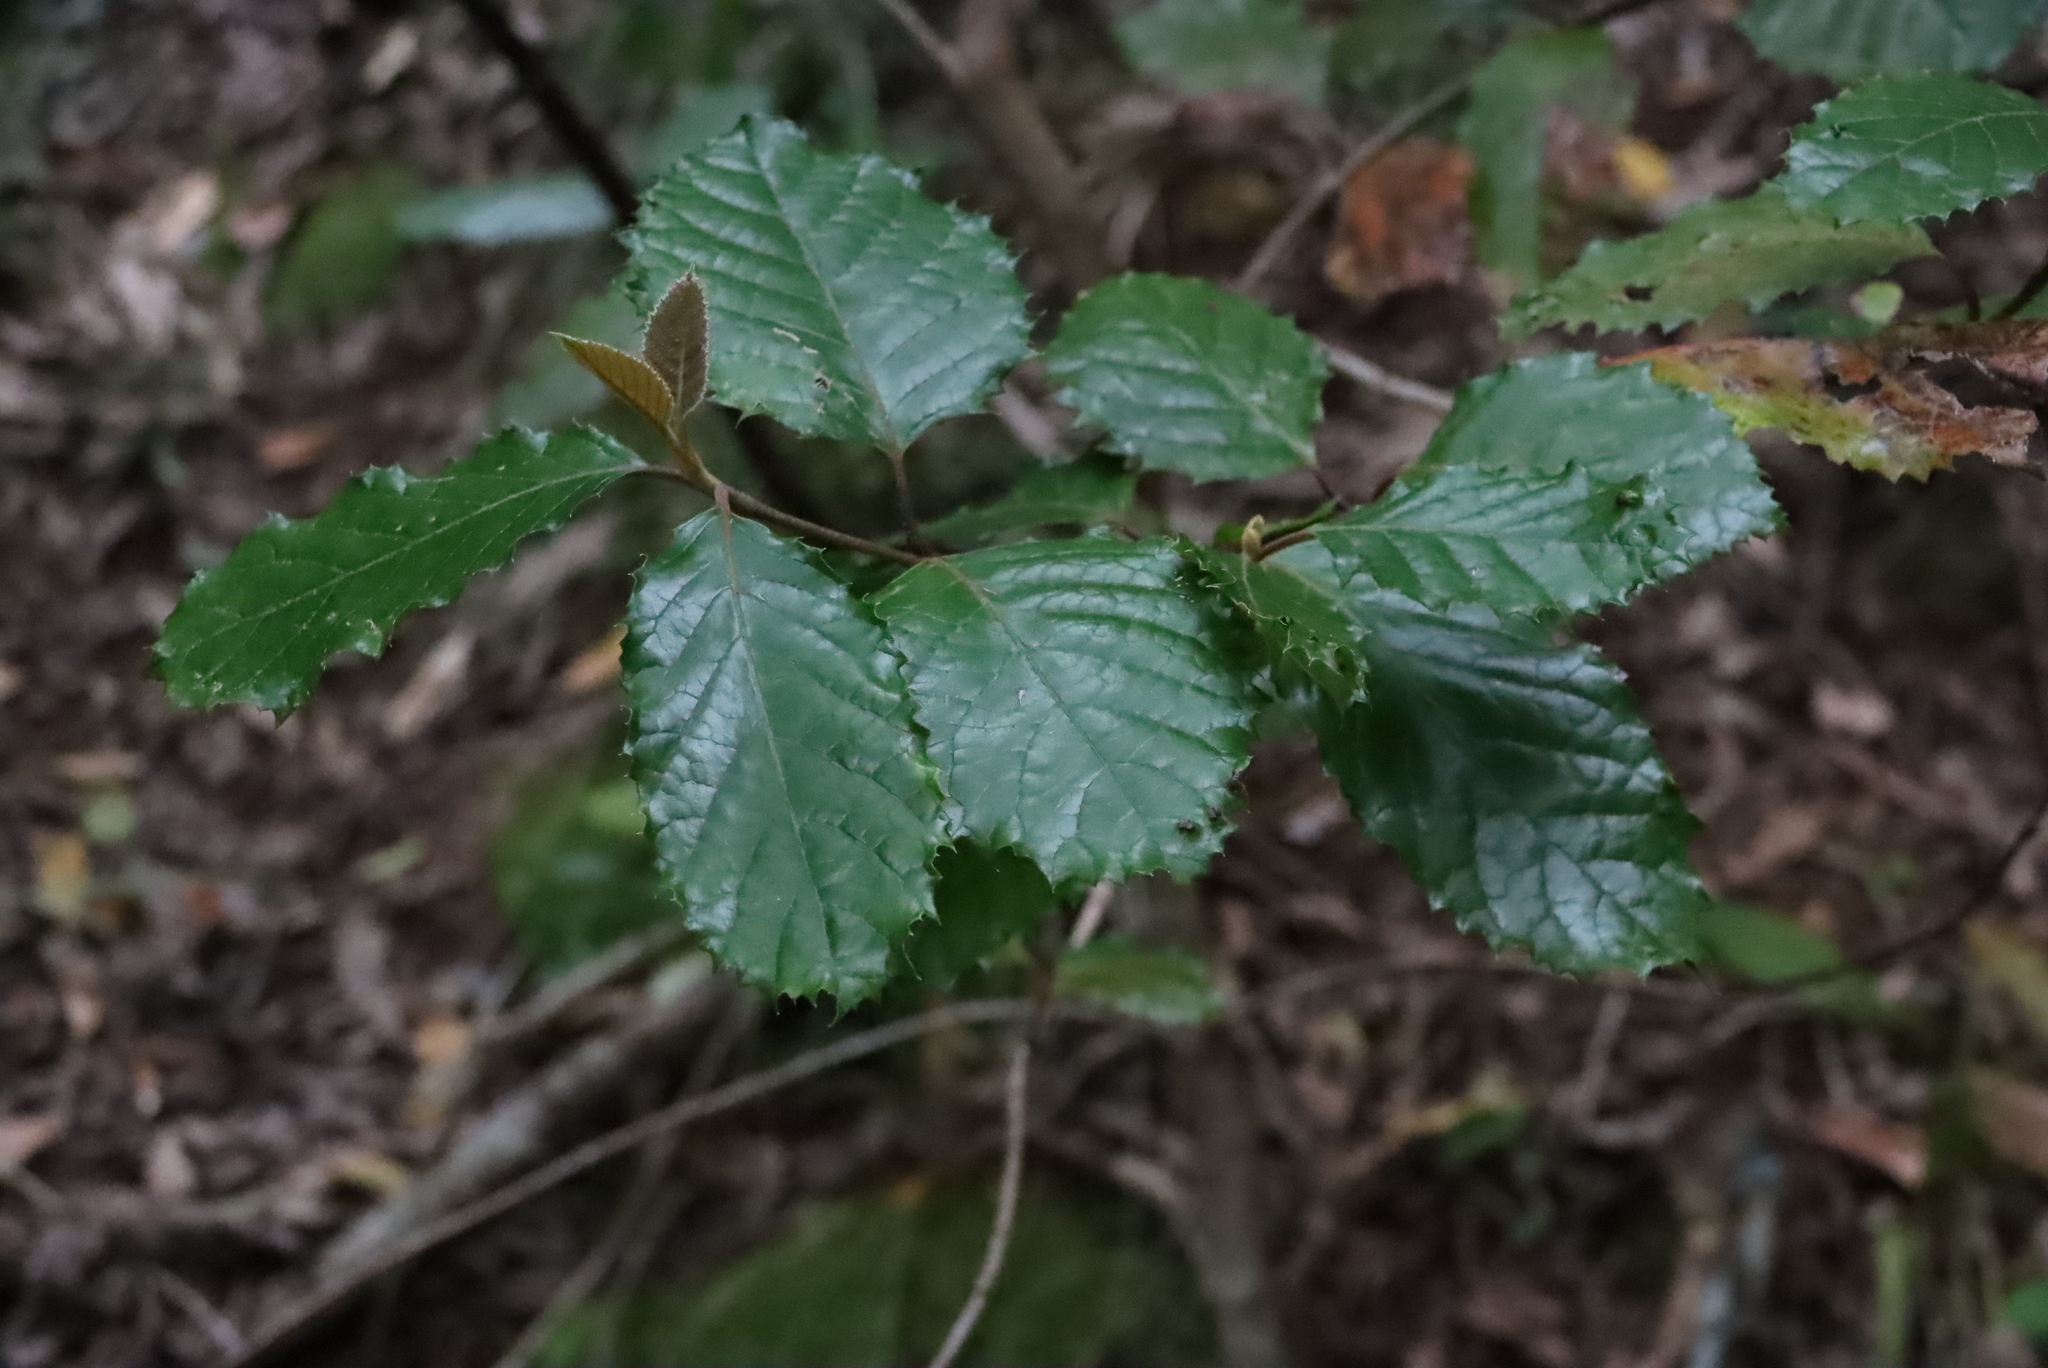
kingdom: Plantae
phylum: Tracheophyta
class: Magnoliopsida
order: Cornales
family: Curtisiaceae
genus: Curtisia
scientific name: Curtisia dentata
